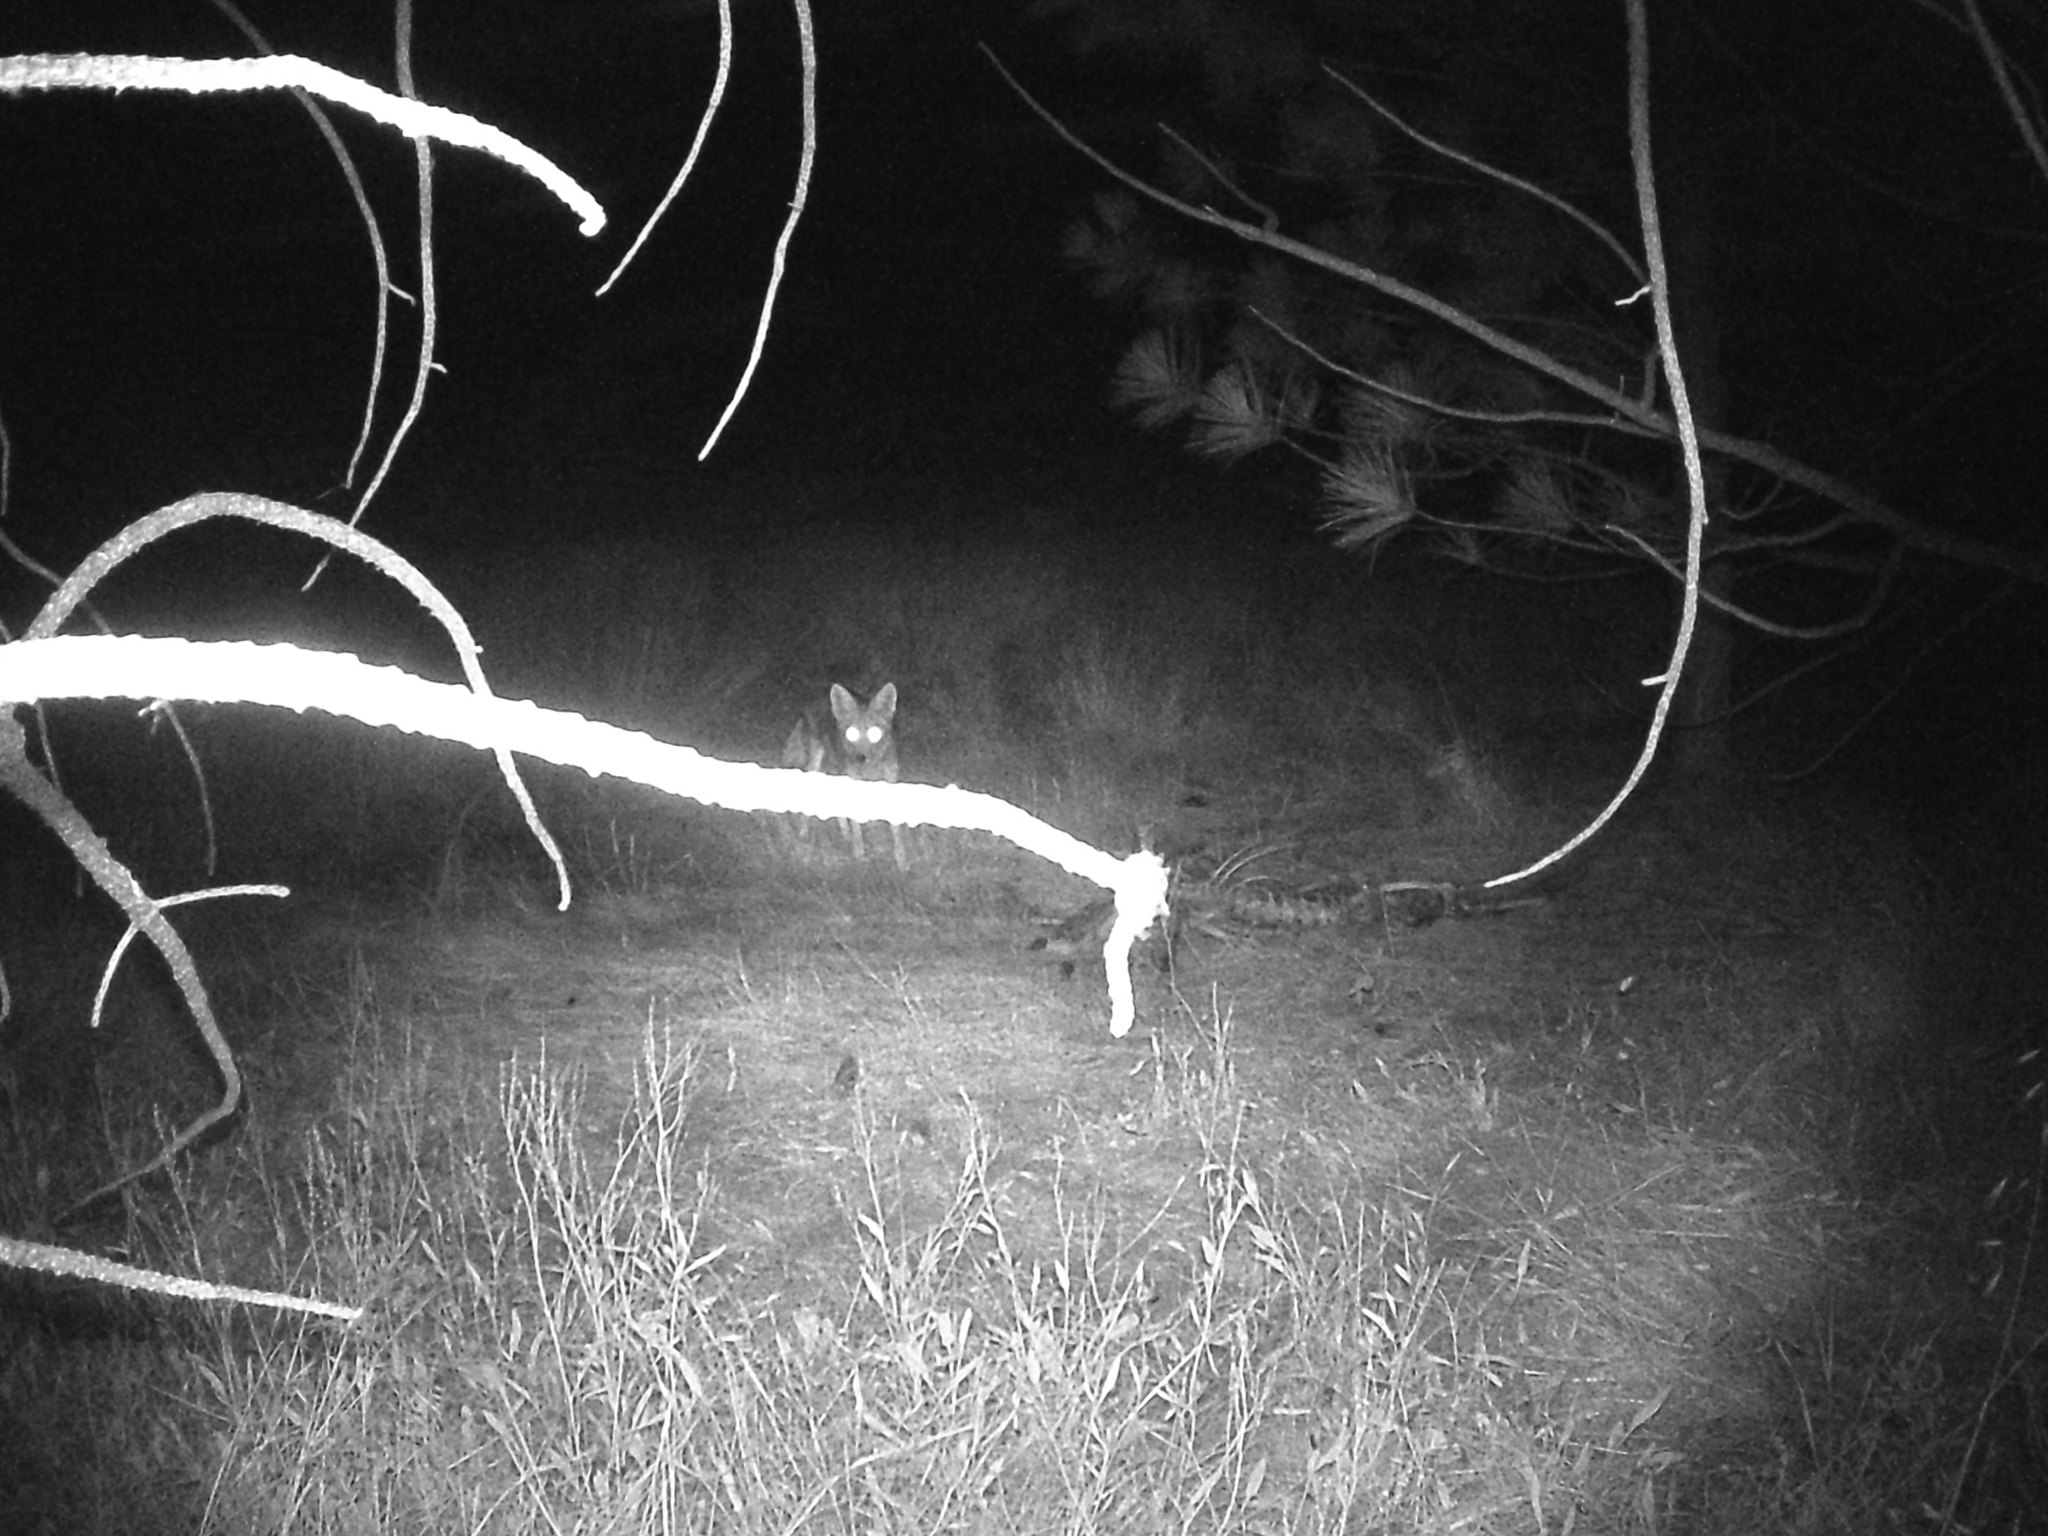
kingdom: Animalia
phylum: Chordata
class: Mammalia
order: Carnivora
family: Canidae
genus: Canis
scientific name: Canis latrans
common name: Coyote
